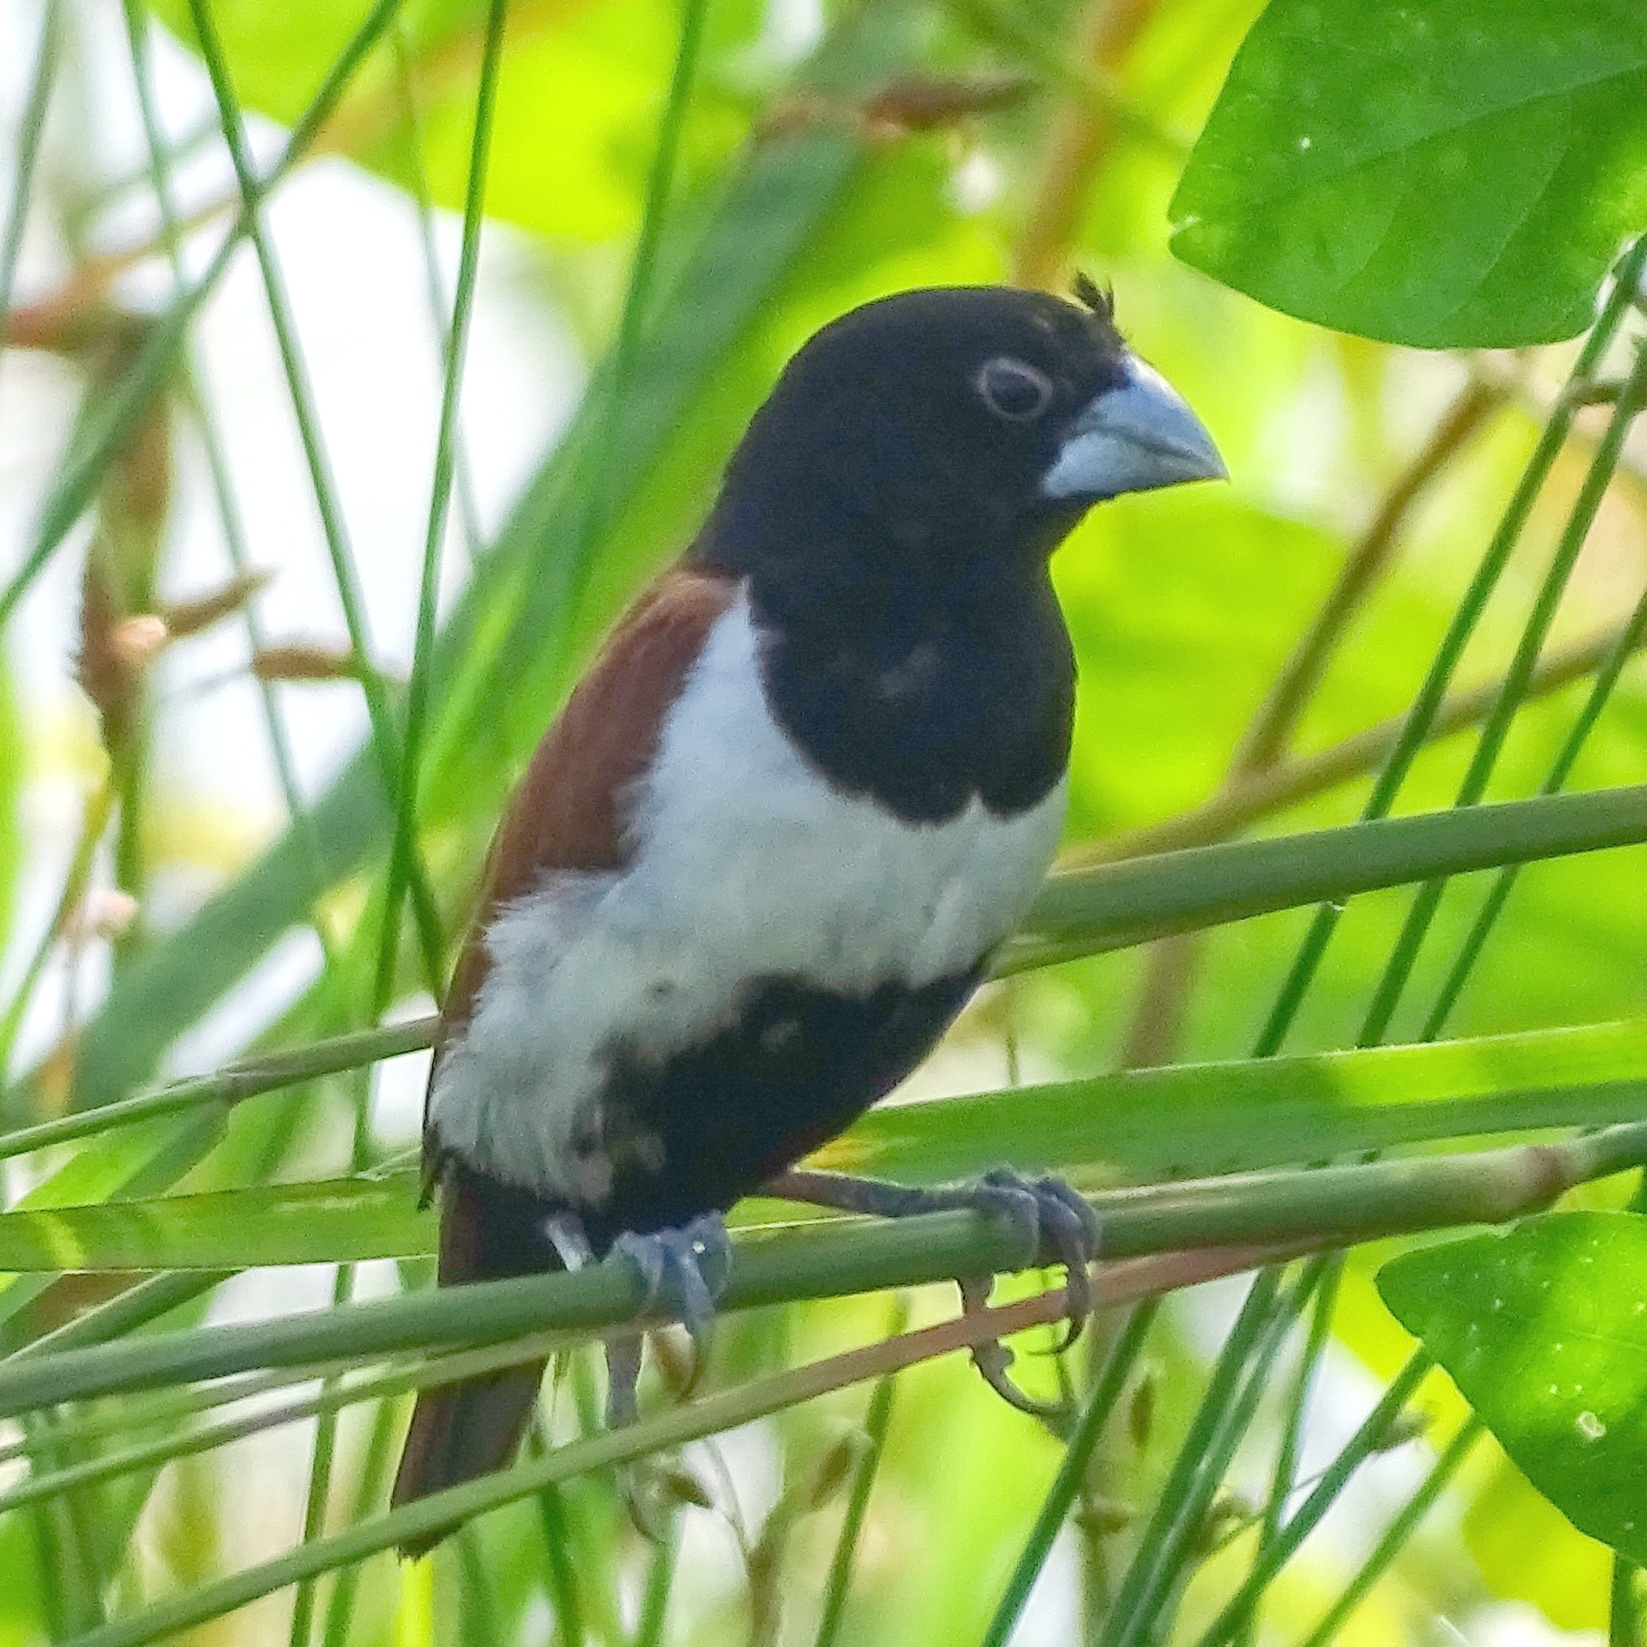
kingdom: Animalia
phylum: Chordata
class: Aves
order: Passeriformes
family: Estrildidae
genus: Lonchura
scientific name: Lonchura malacca
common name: Tricolored munia
